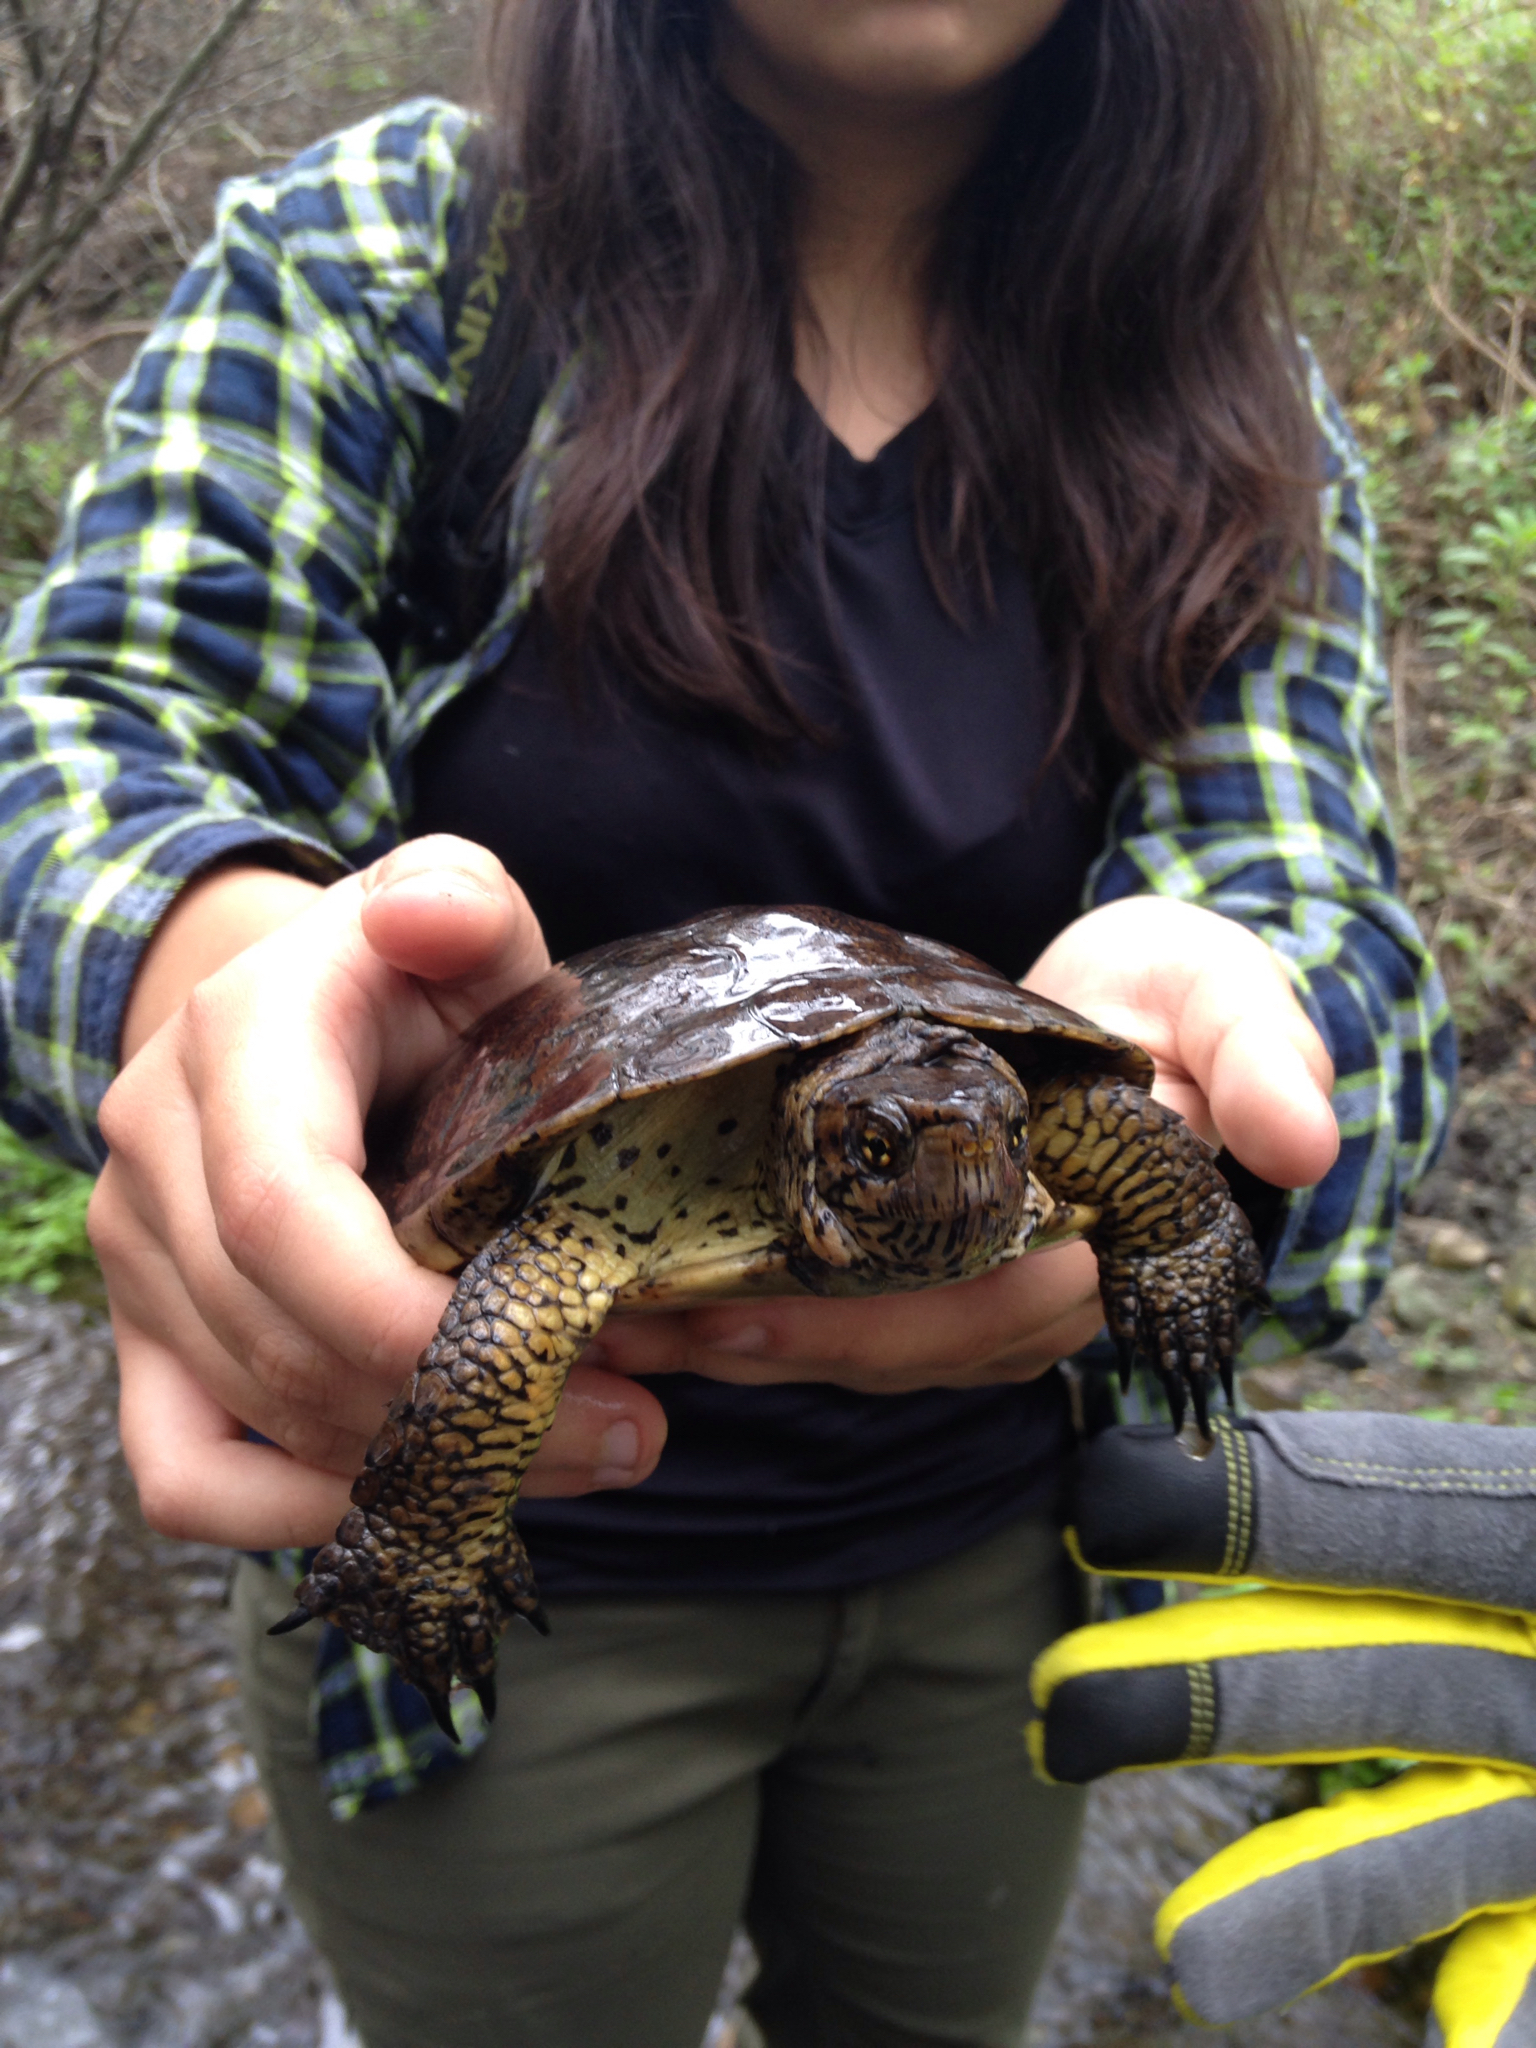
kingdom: Animalia
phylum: Chordata
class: Testudines
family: Emydidae
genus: Actinemys
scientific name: Actinemys marmorata
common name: Western pond turtle
